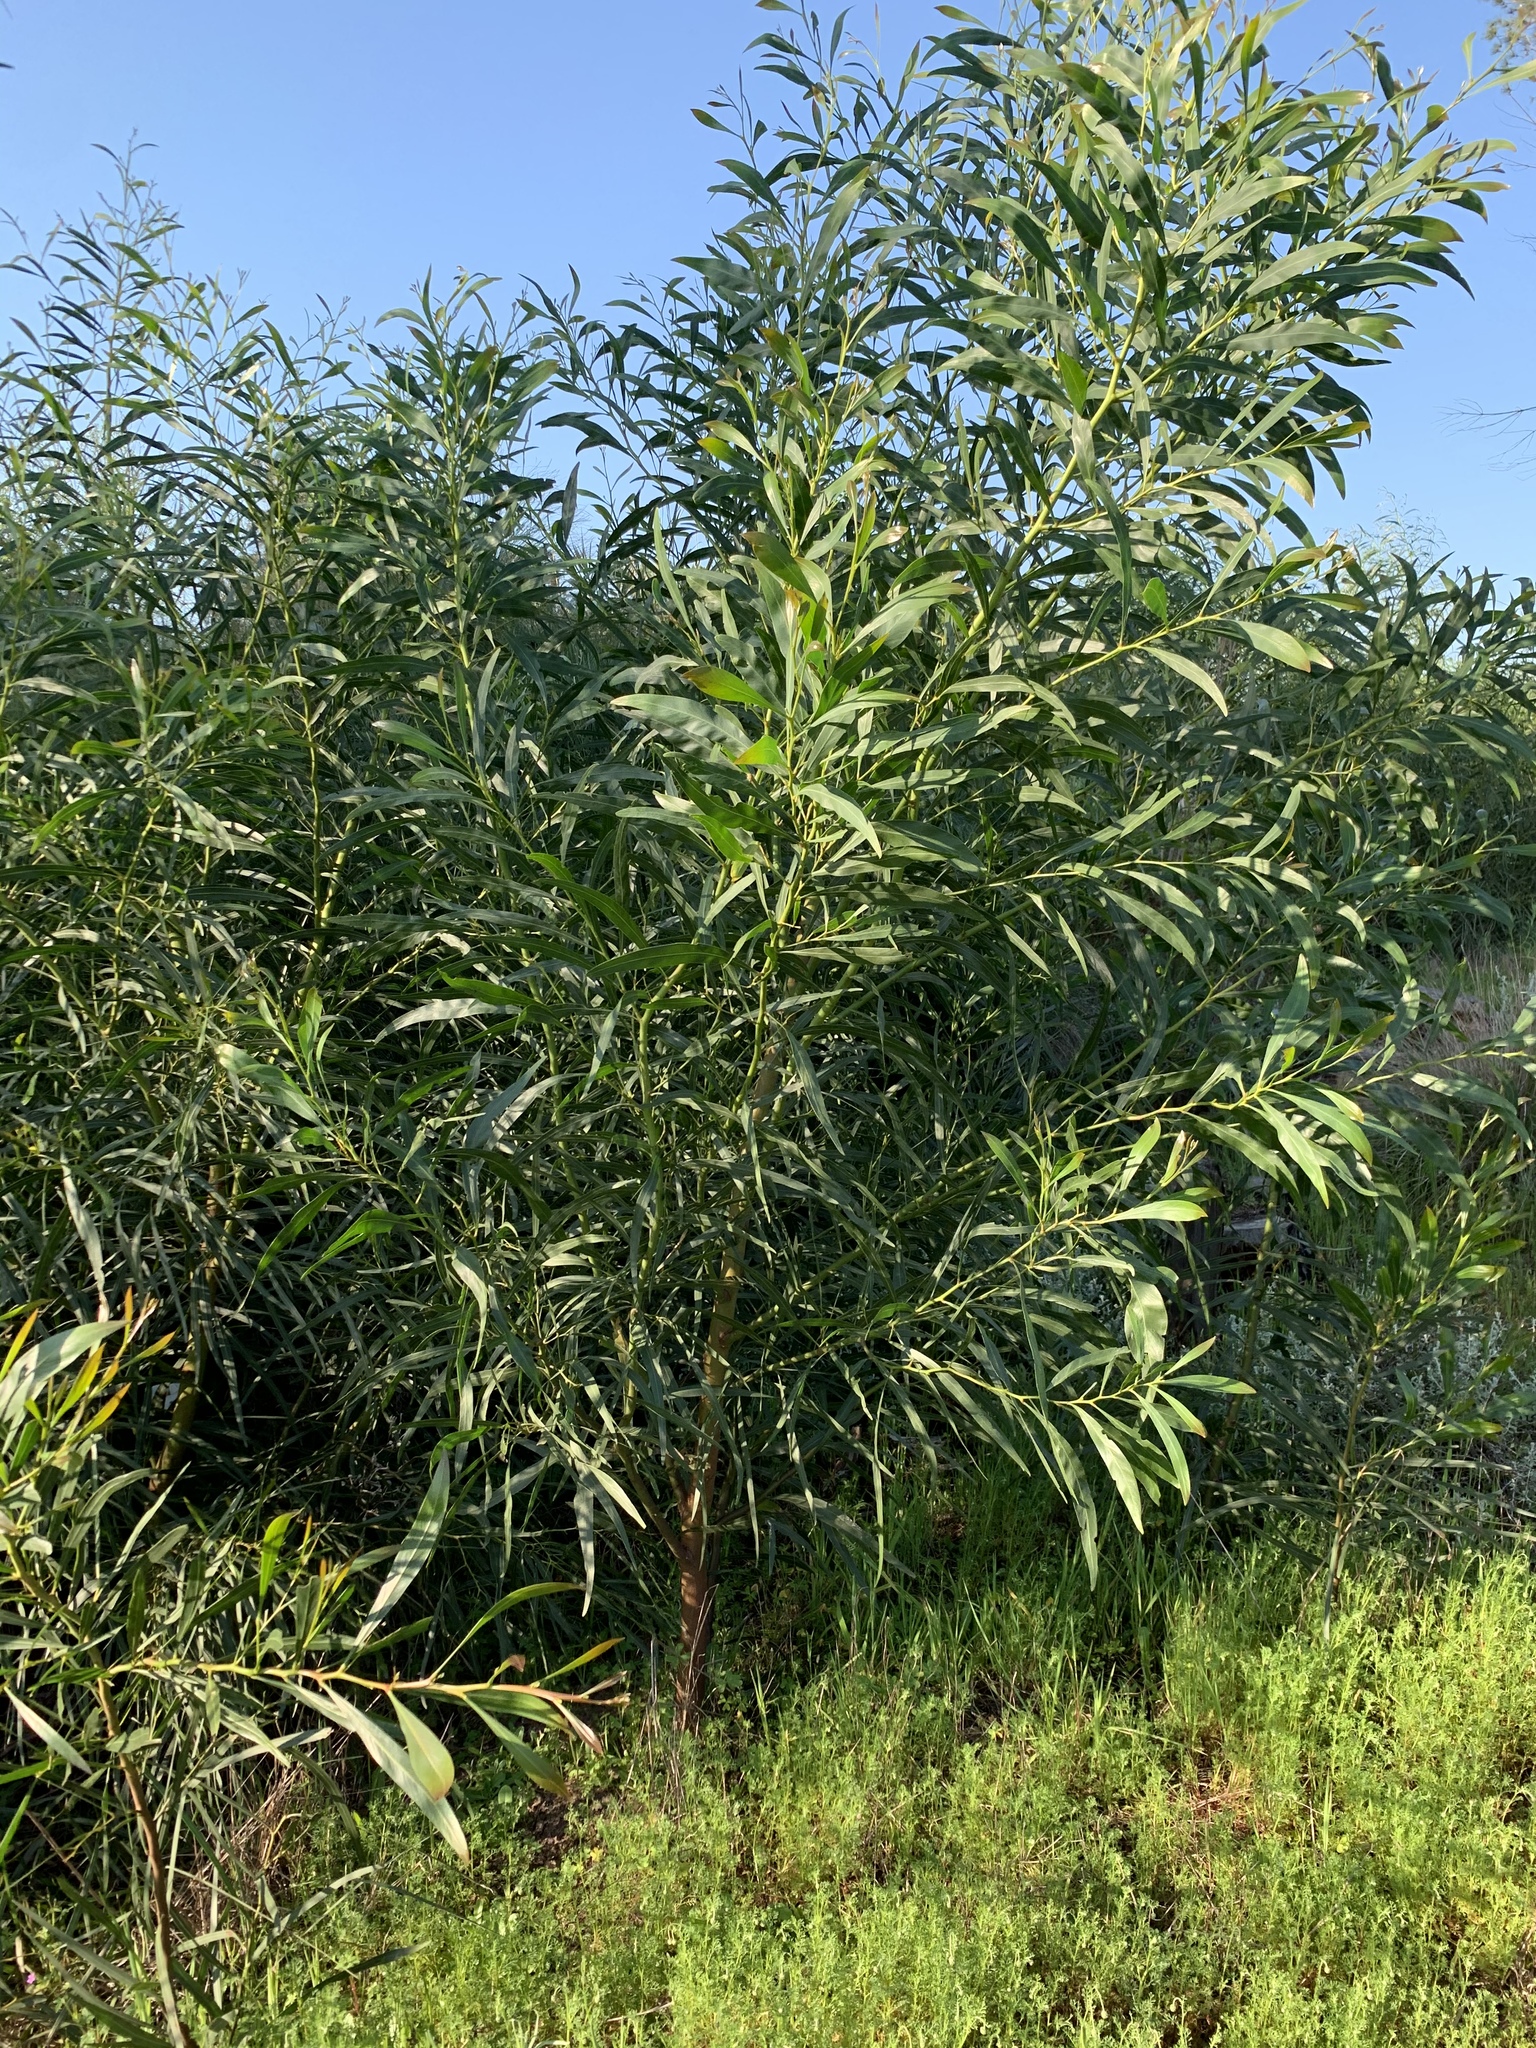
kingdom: Plantae
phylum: Tracheophyta
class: Magnoliopsida
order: Fabales
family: Fabaceae
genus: Acacia
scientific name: Acacia saligna
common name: Orange wattle
